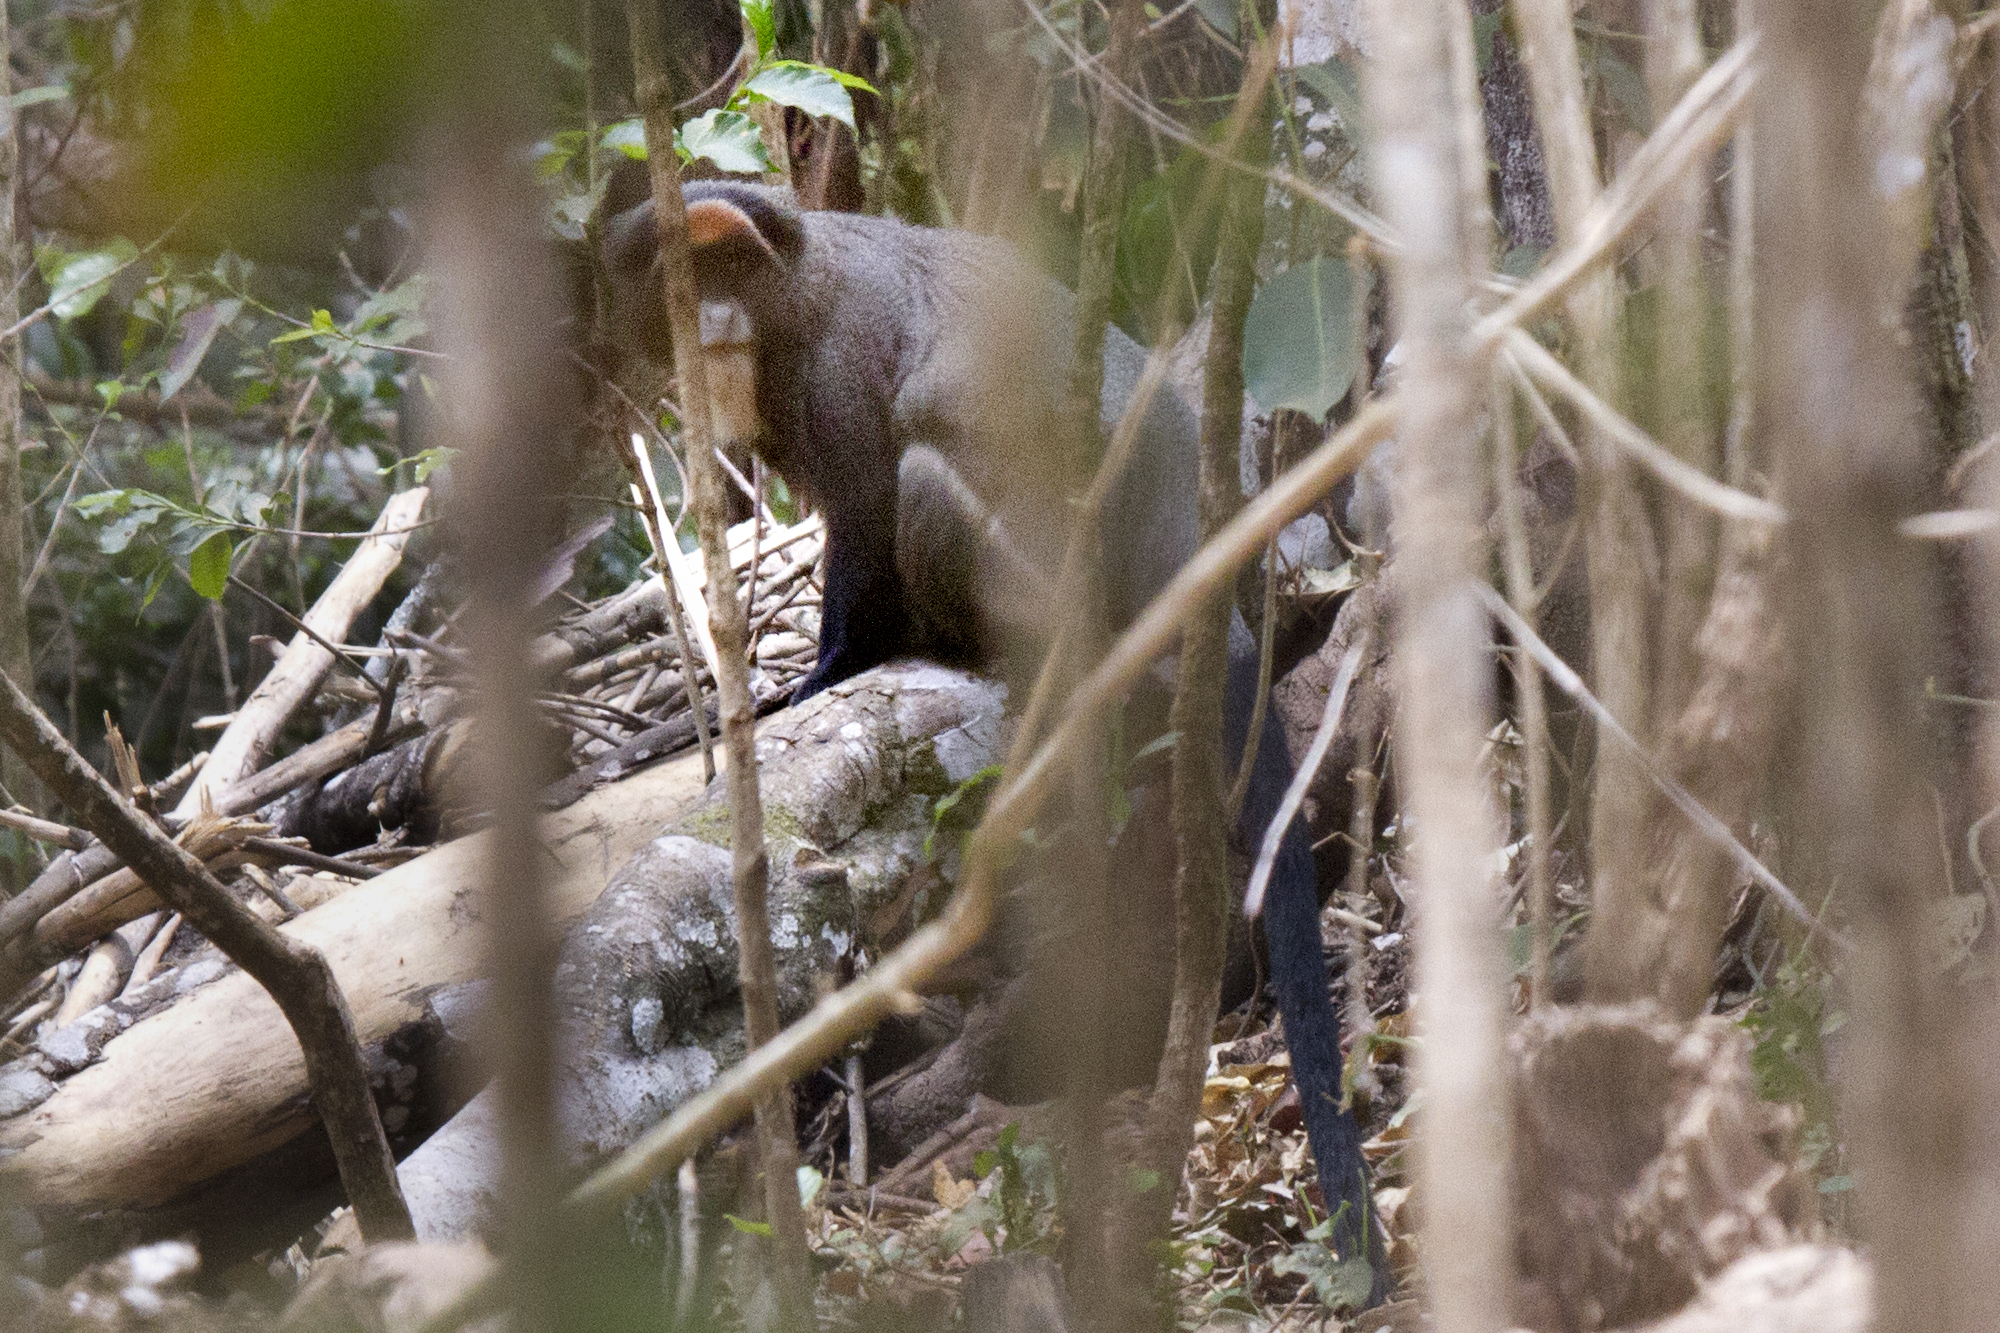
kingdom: Animalia
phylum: Chordata
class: Mammalia
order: Primates
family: Cercopithecidae
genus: Cercopithecus
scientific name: Cercopithecus neglectus
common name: De brazza's guenon
